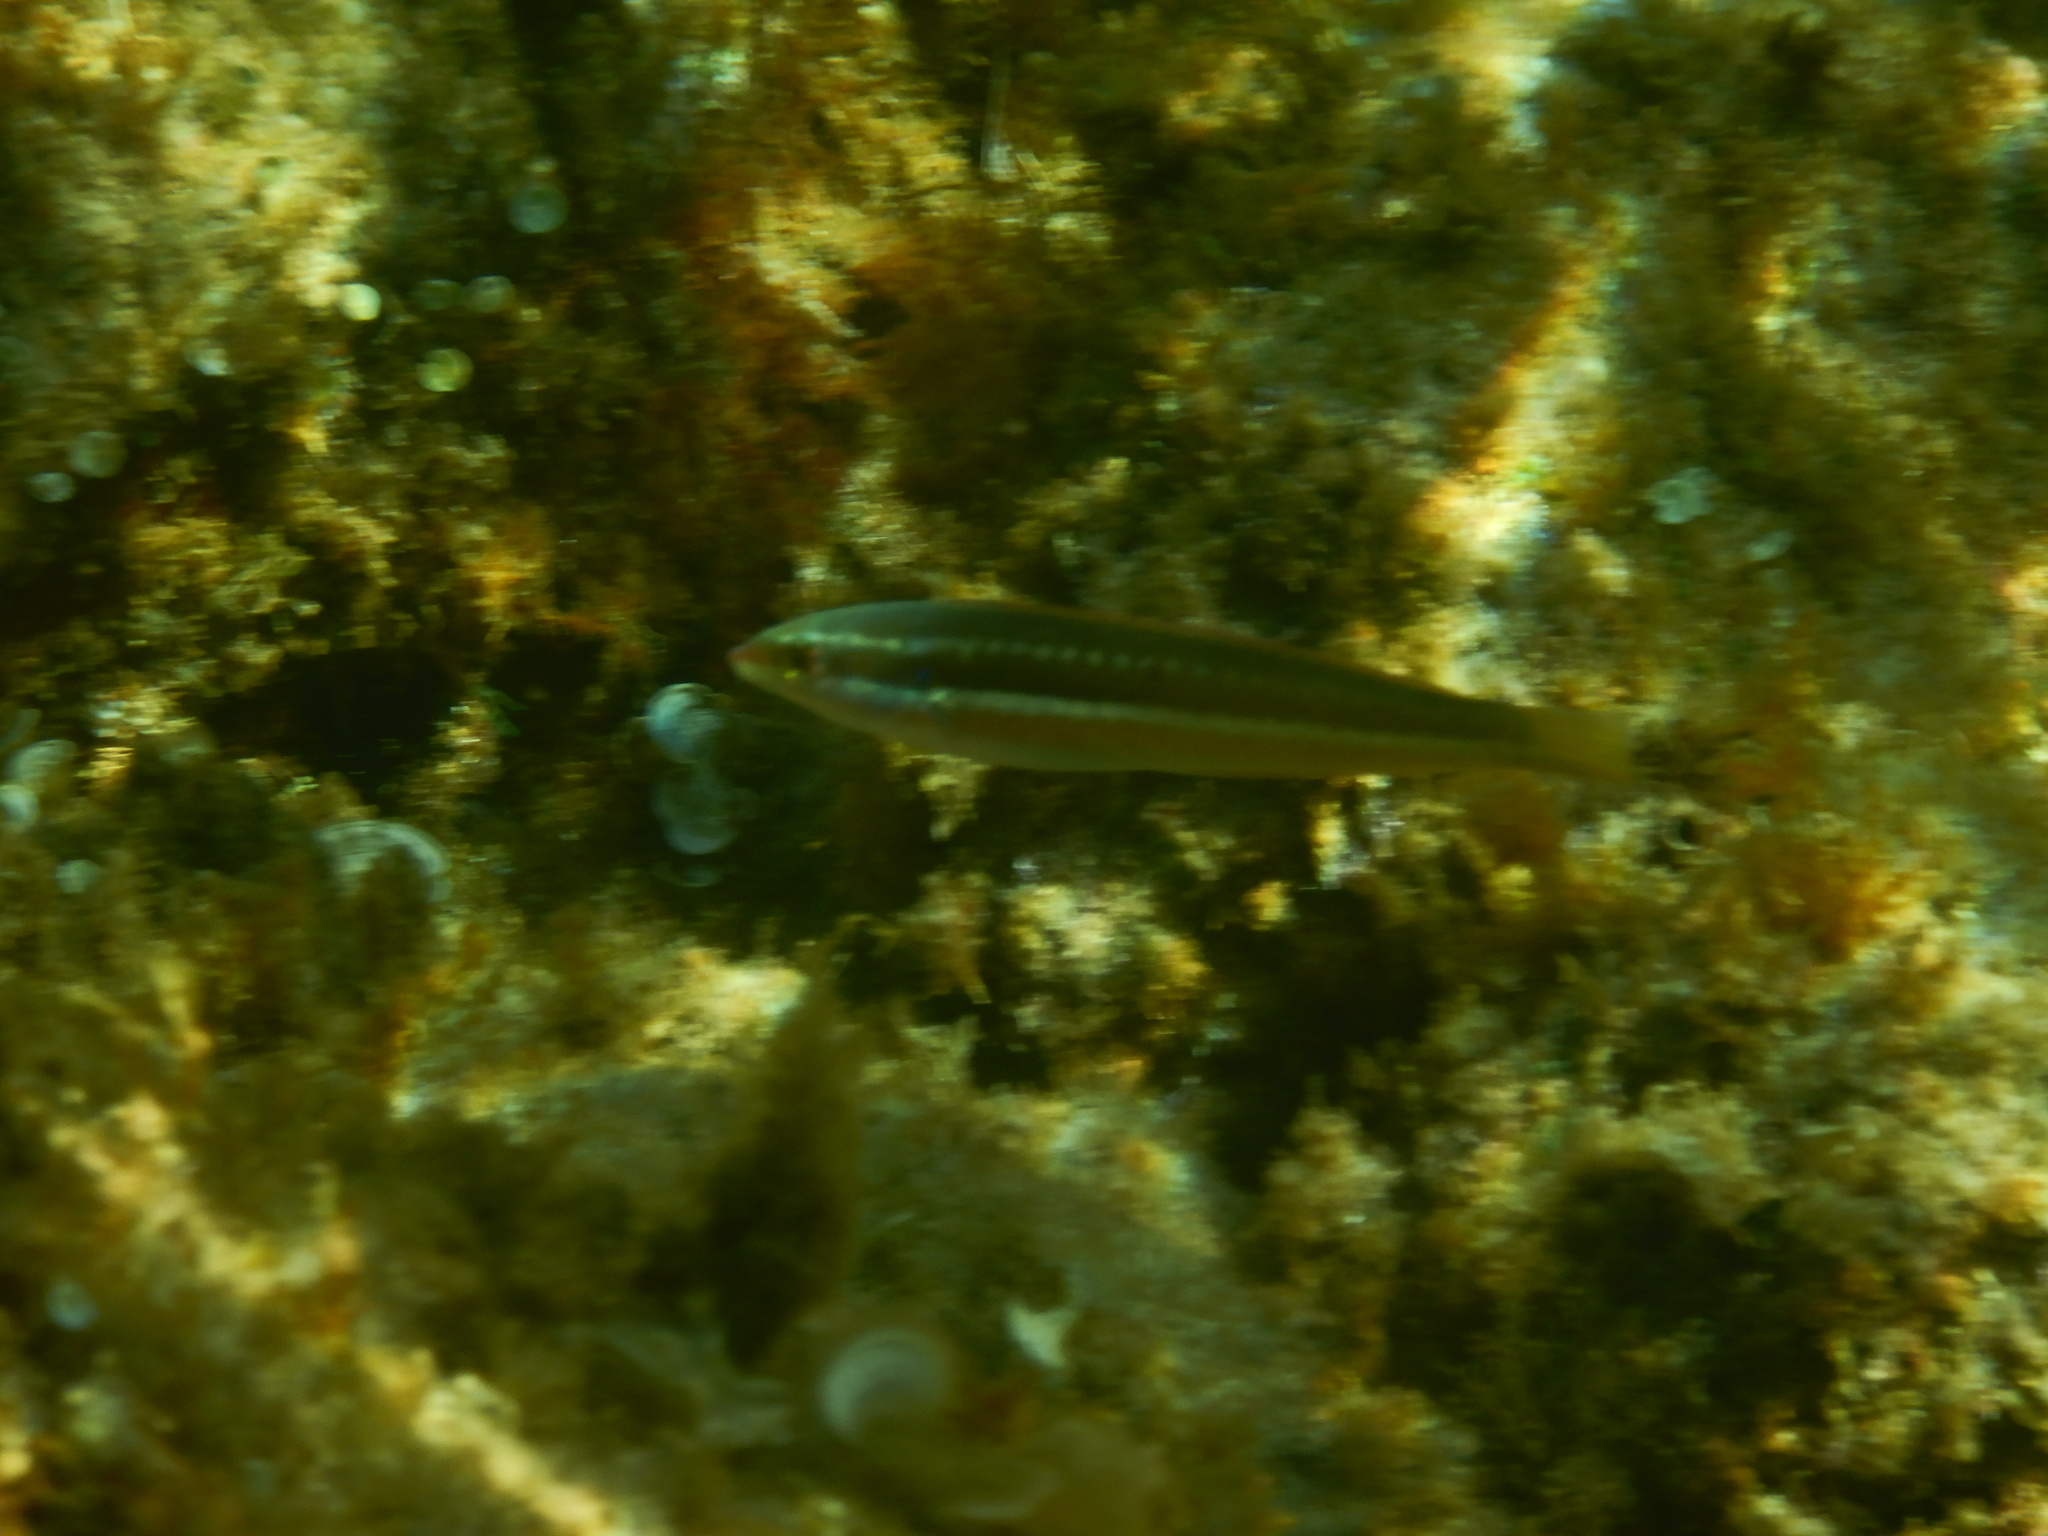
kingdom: Animalia
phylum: Chordata
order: Perciformes
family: Labridae
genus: Coris
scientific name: Coris julis
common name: Rainbow wrasse
